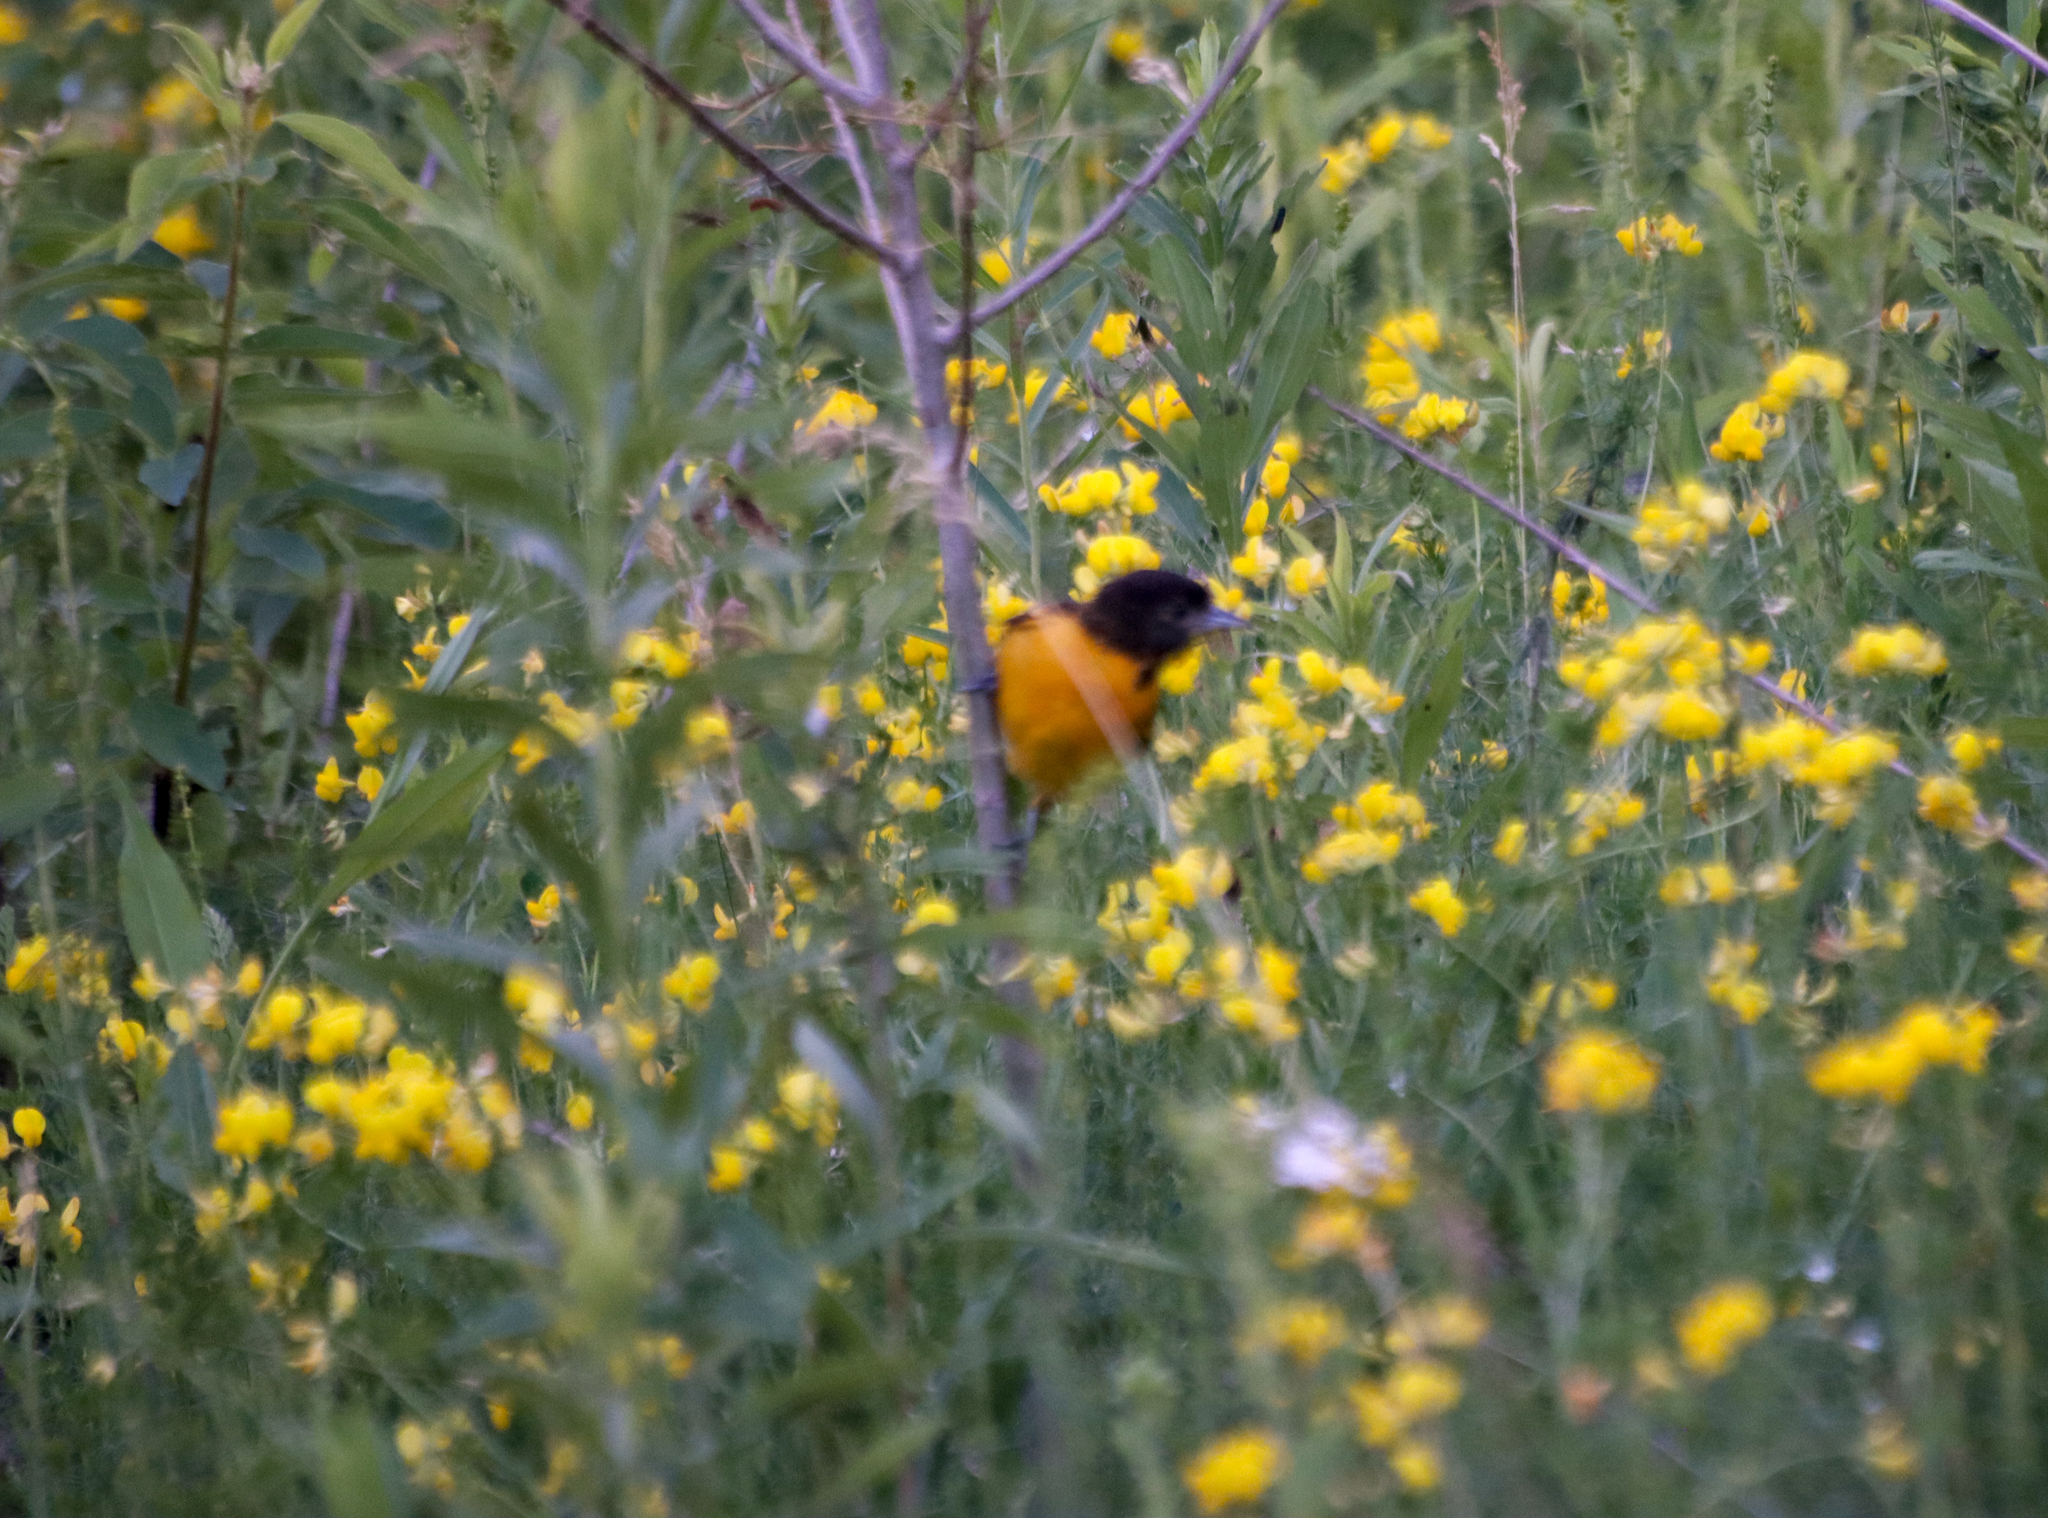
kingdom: Animalia
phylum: Chordata
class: Aves
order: Passeriformes
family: Icteridae
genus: Icterus
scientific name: Icterus galbula
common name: Baltimore oriole
